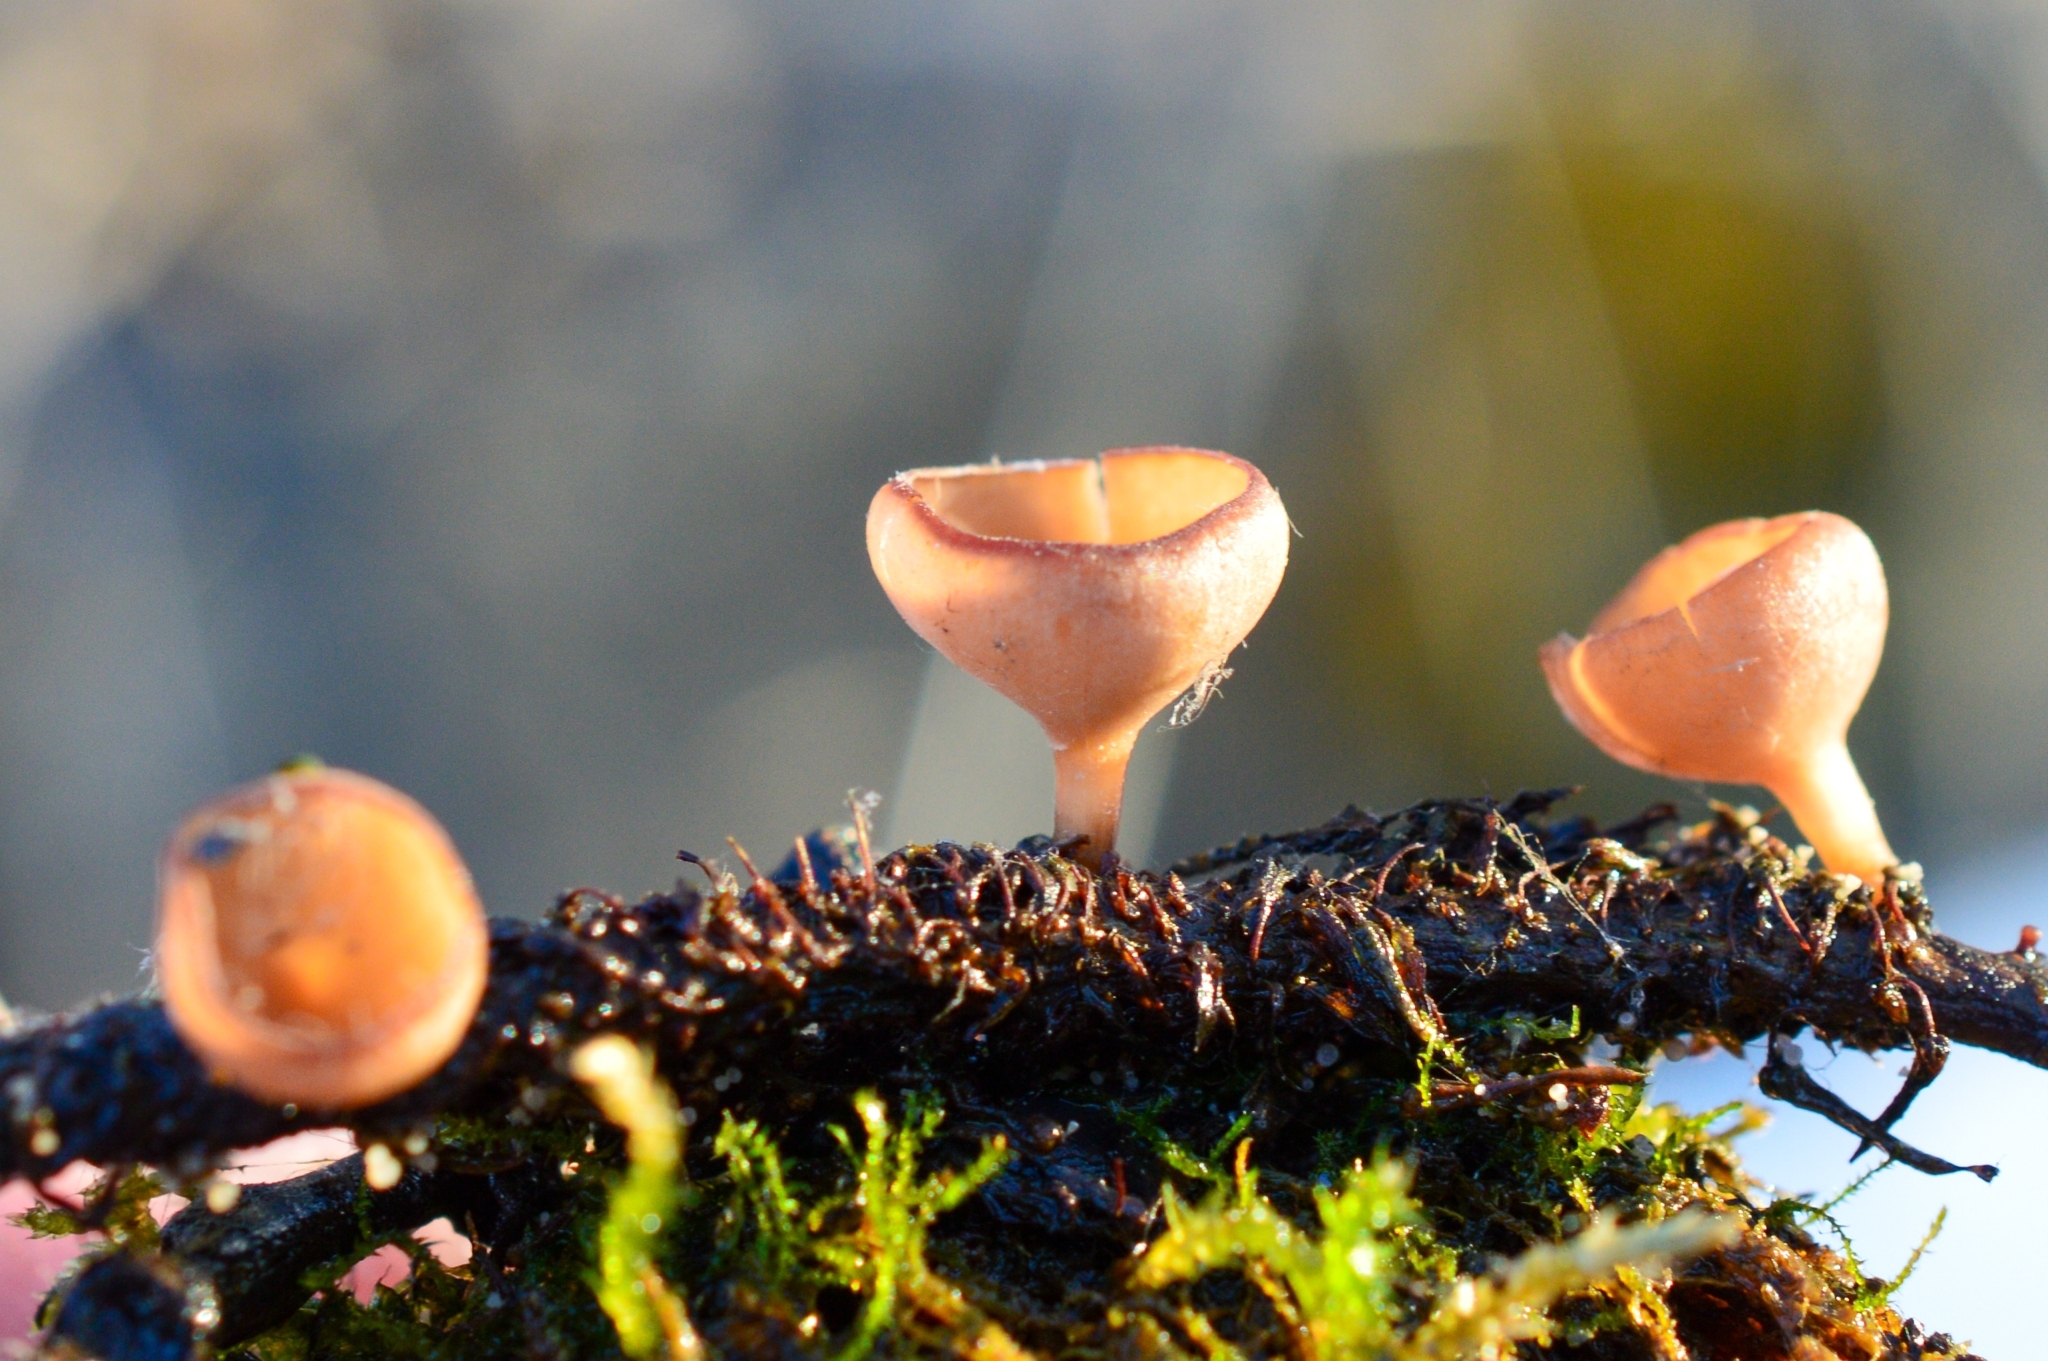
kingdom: Fungi
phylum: Ascomycota
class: Leotiomycetes
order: Helotiales
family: Sclerotiniaceae
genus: Dumontinia
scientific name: Dumontinia tuberosa
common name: Anemone cup
